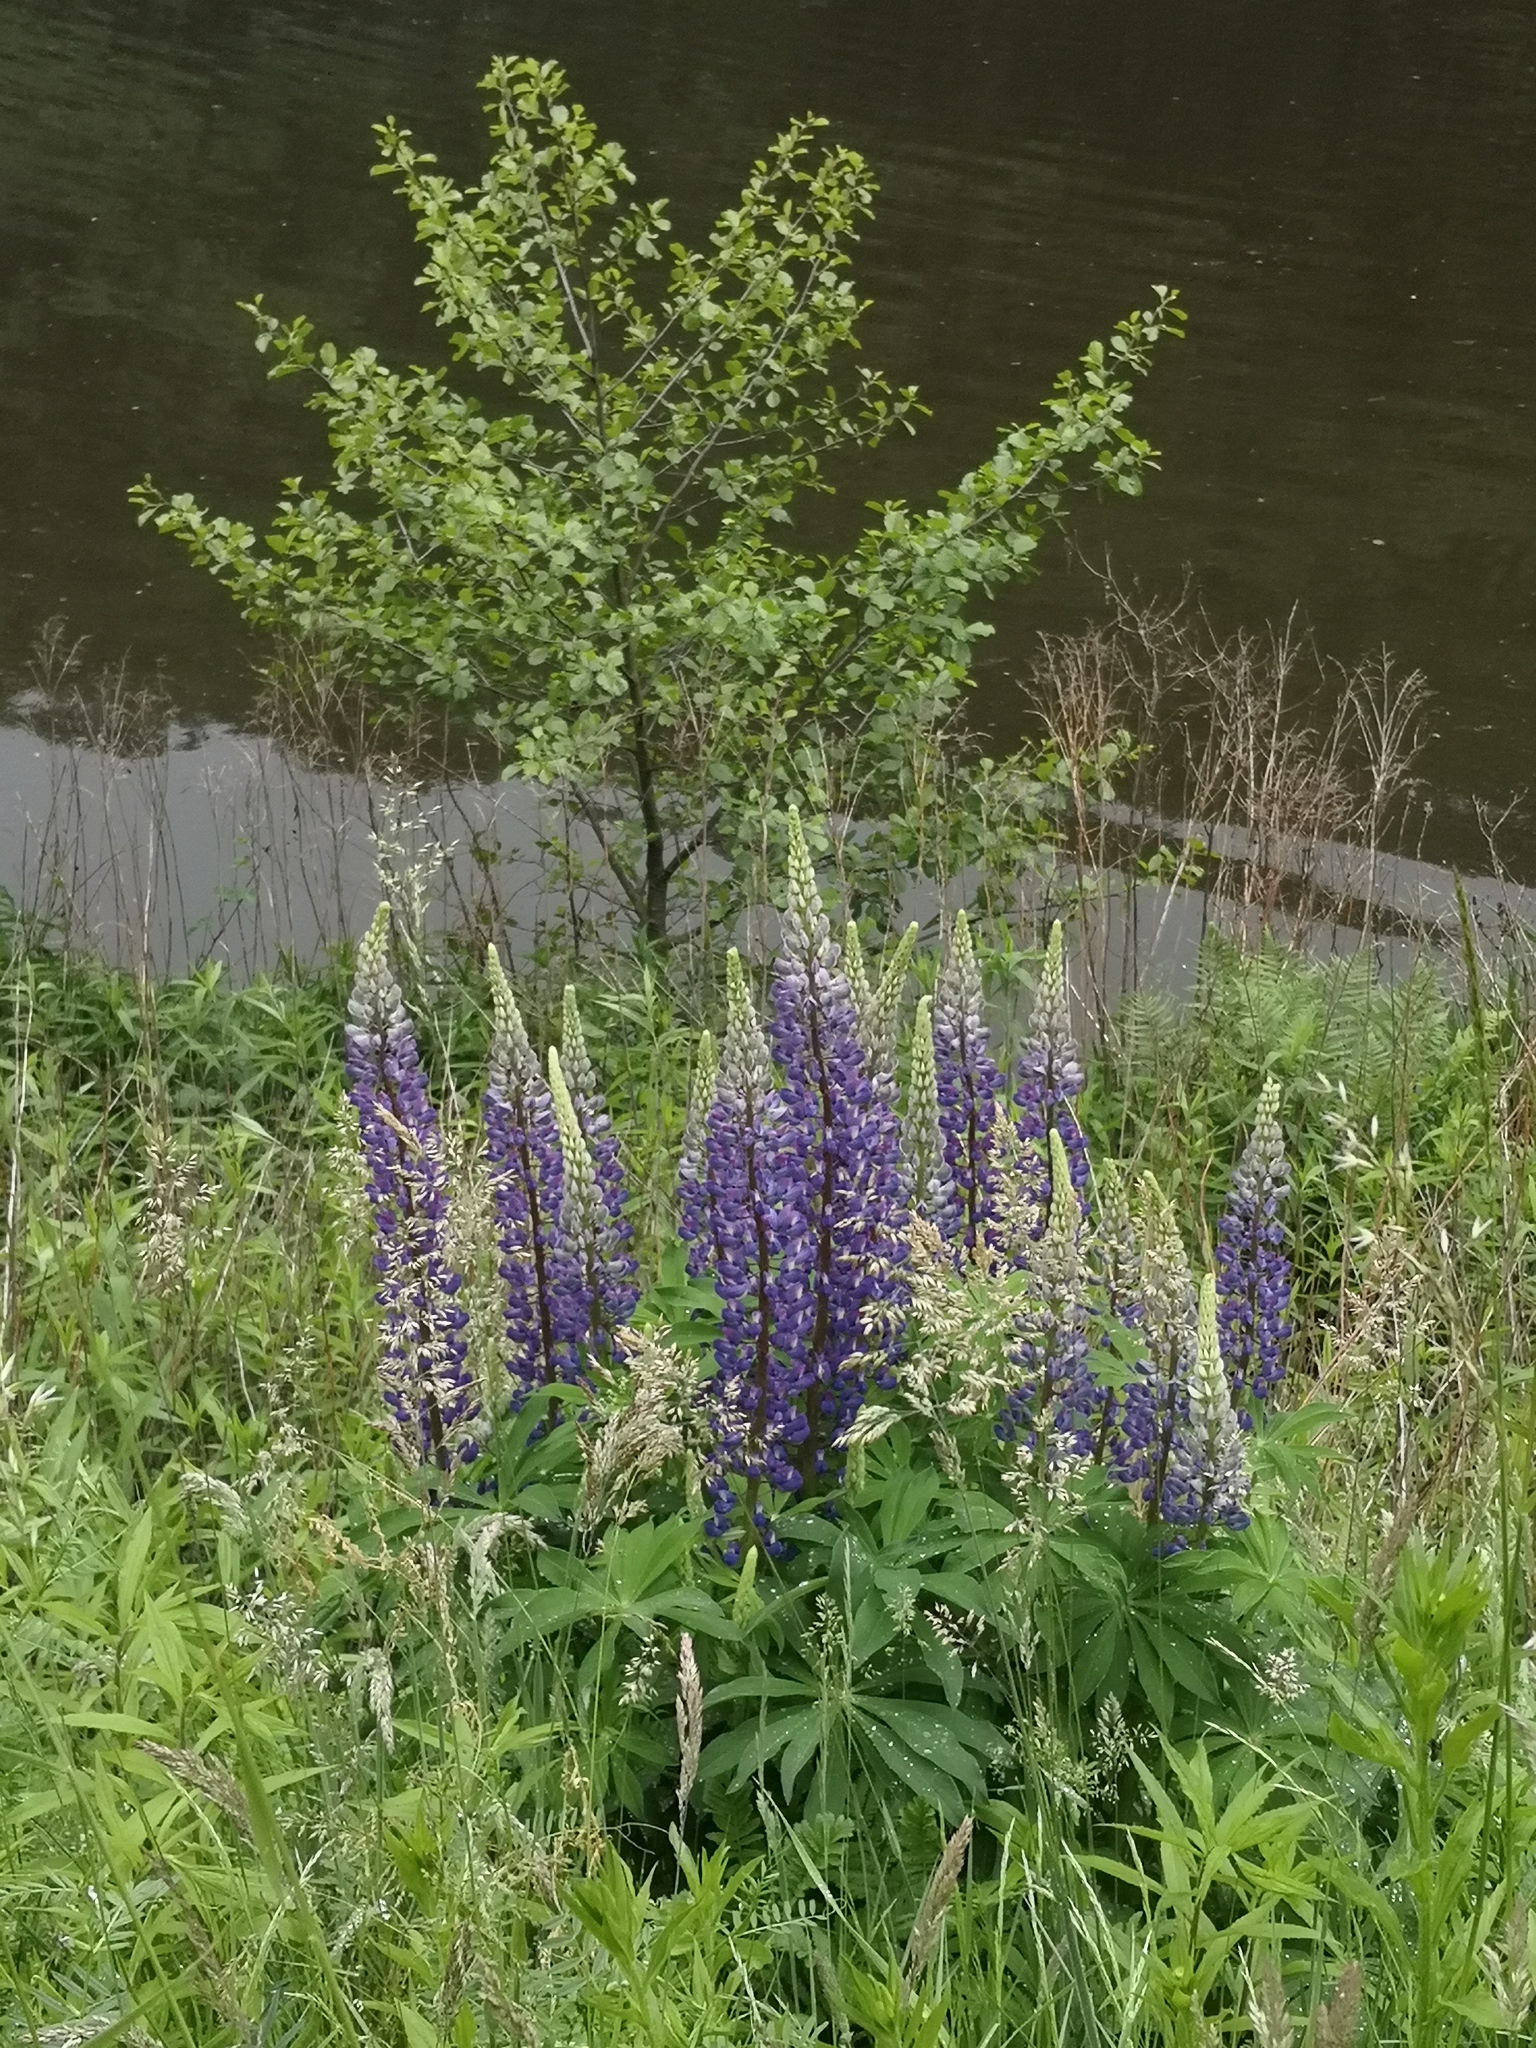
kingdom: Plantae
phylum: Tracheophyta
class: Magnoliopsida
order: Fabales
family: Fabaceae
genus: Lupinus
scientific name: Lupinus polyphyllus
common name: Garden lupin
